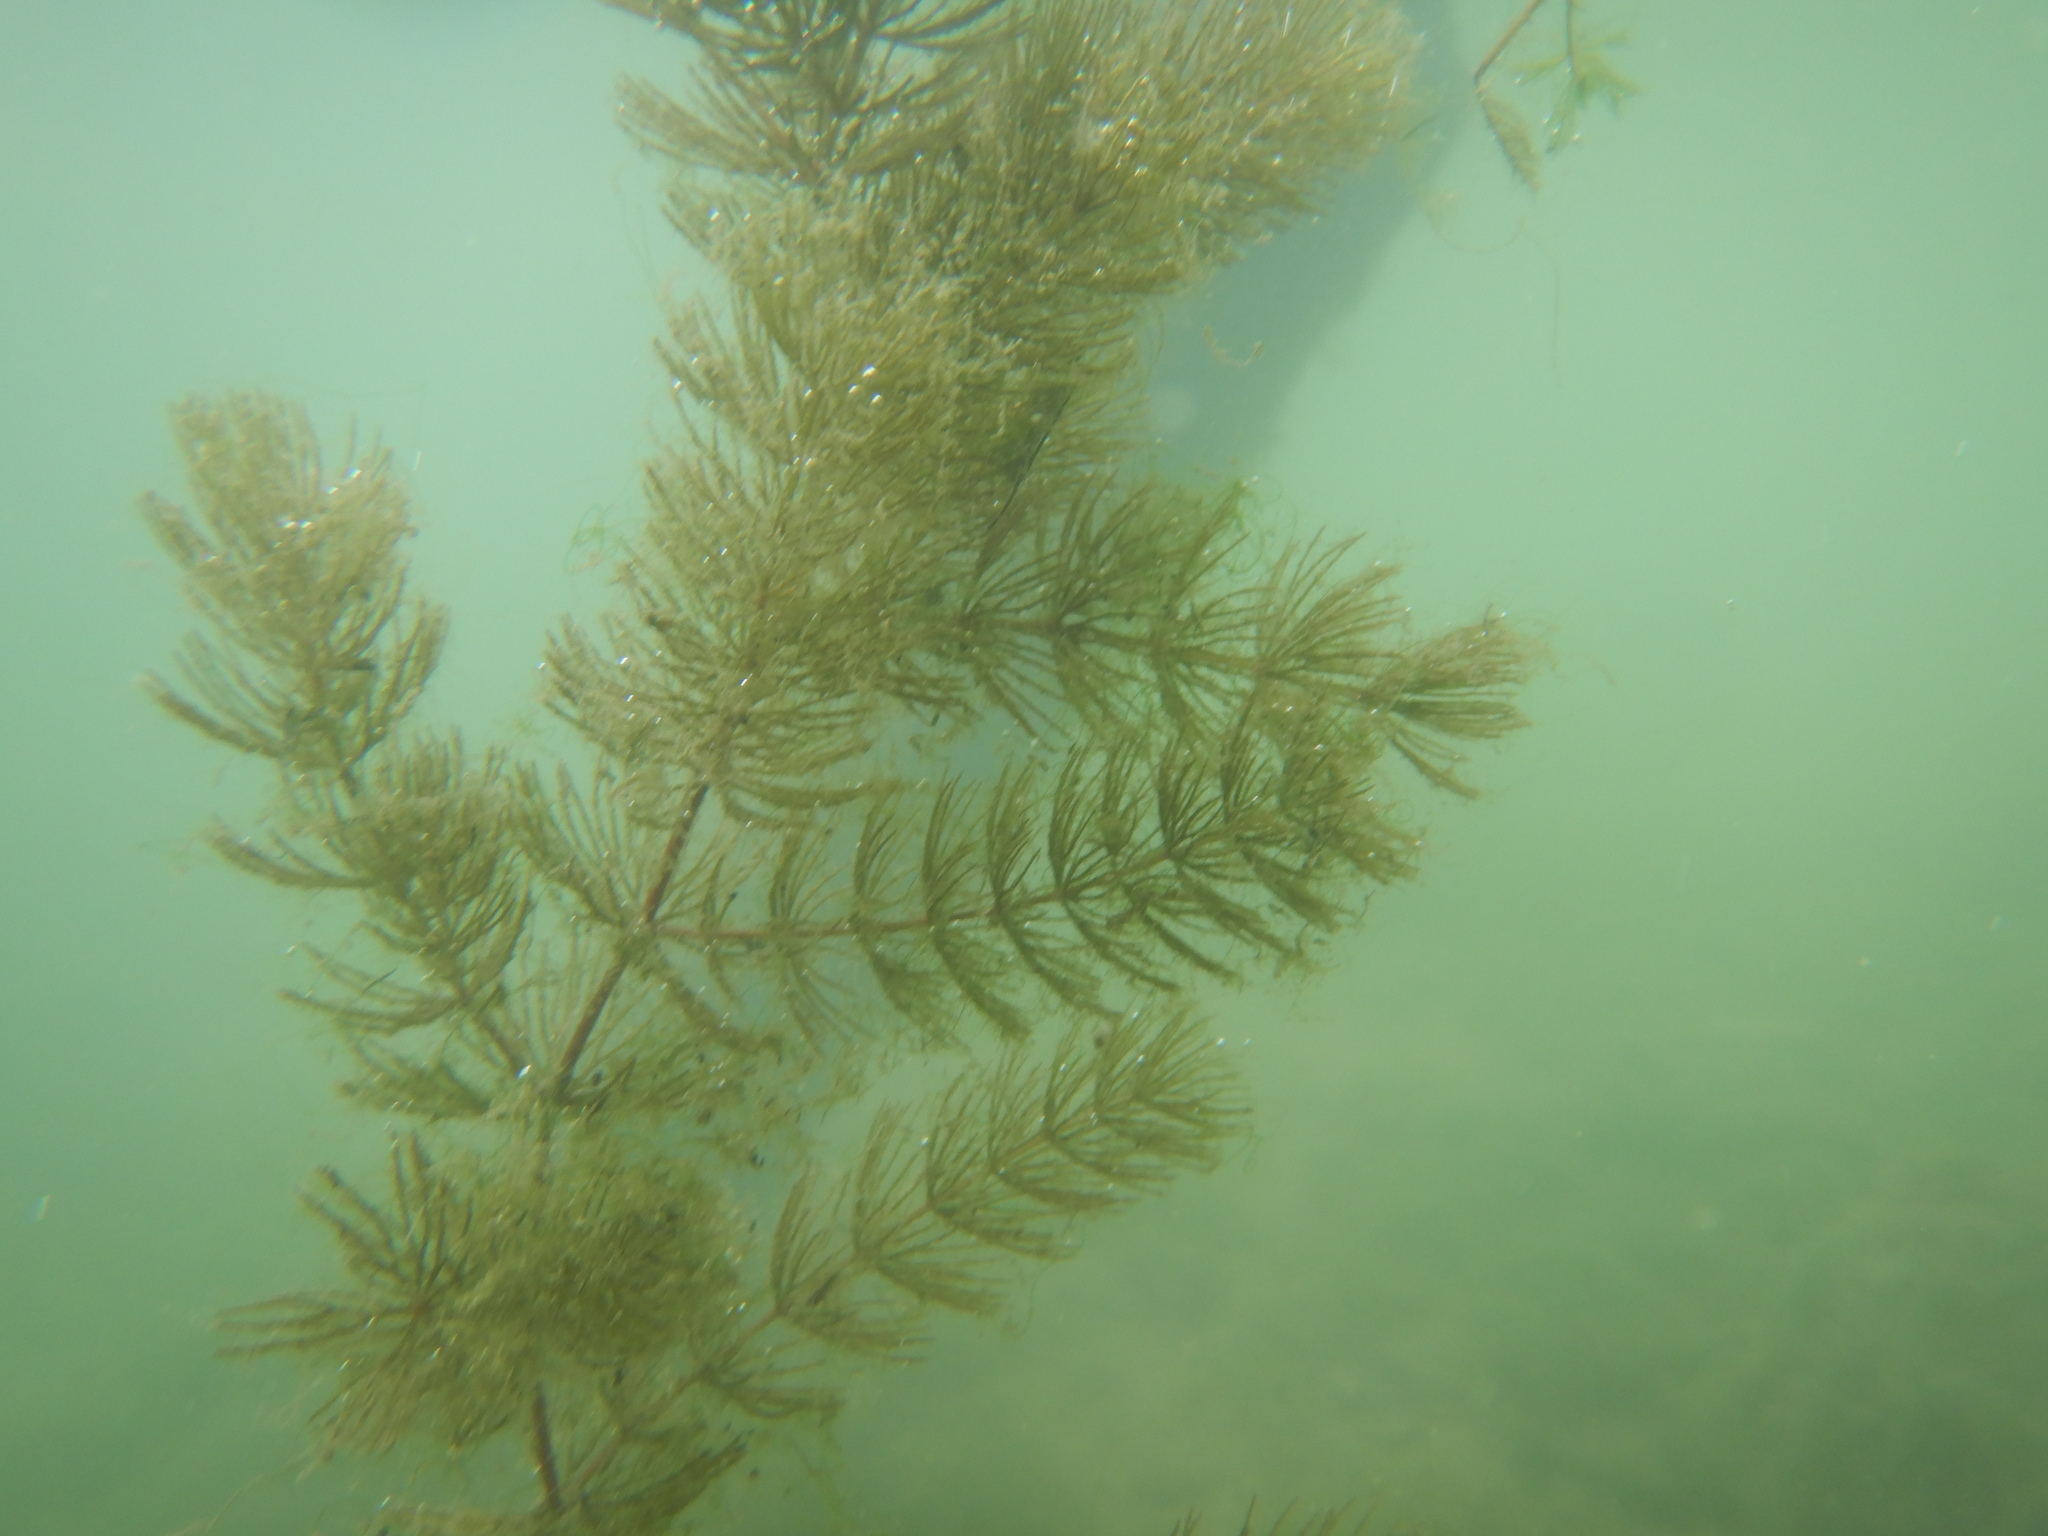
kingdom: Plantae
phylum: Tracheophyta
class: Magnoliopsida
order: Ceratophyllales
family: Ceratophyllaceae
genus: Ceratophyllum
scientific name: Ceratophyllum demersum
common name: Rigid hornwort
